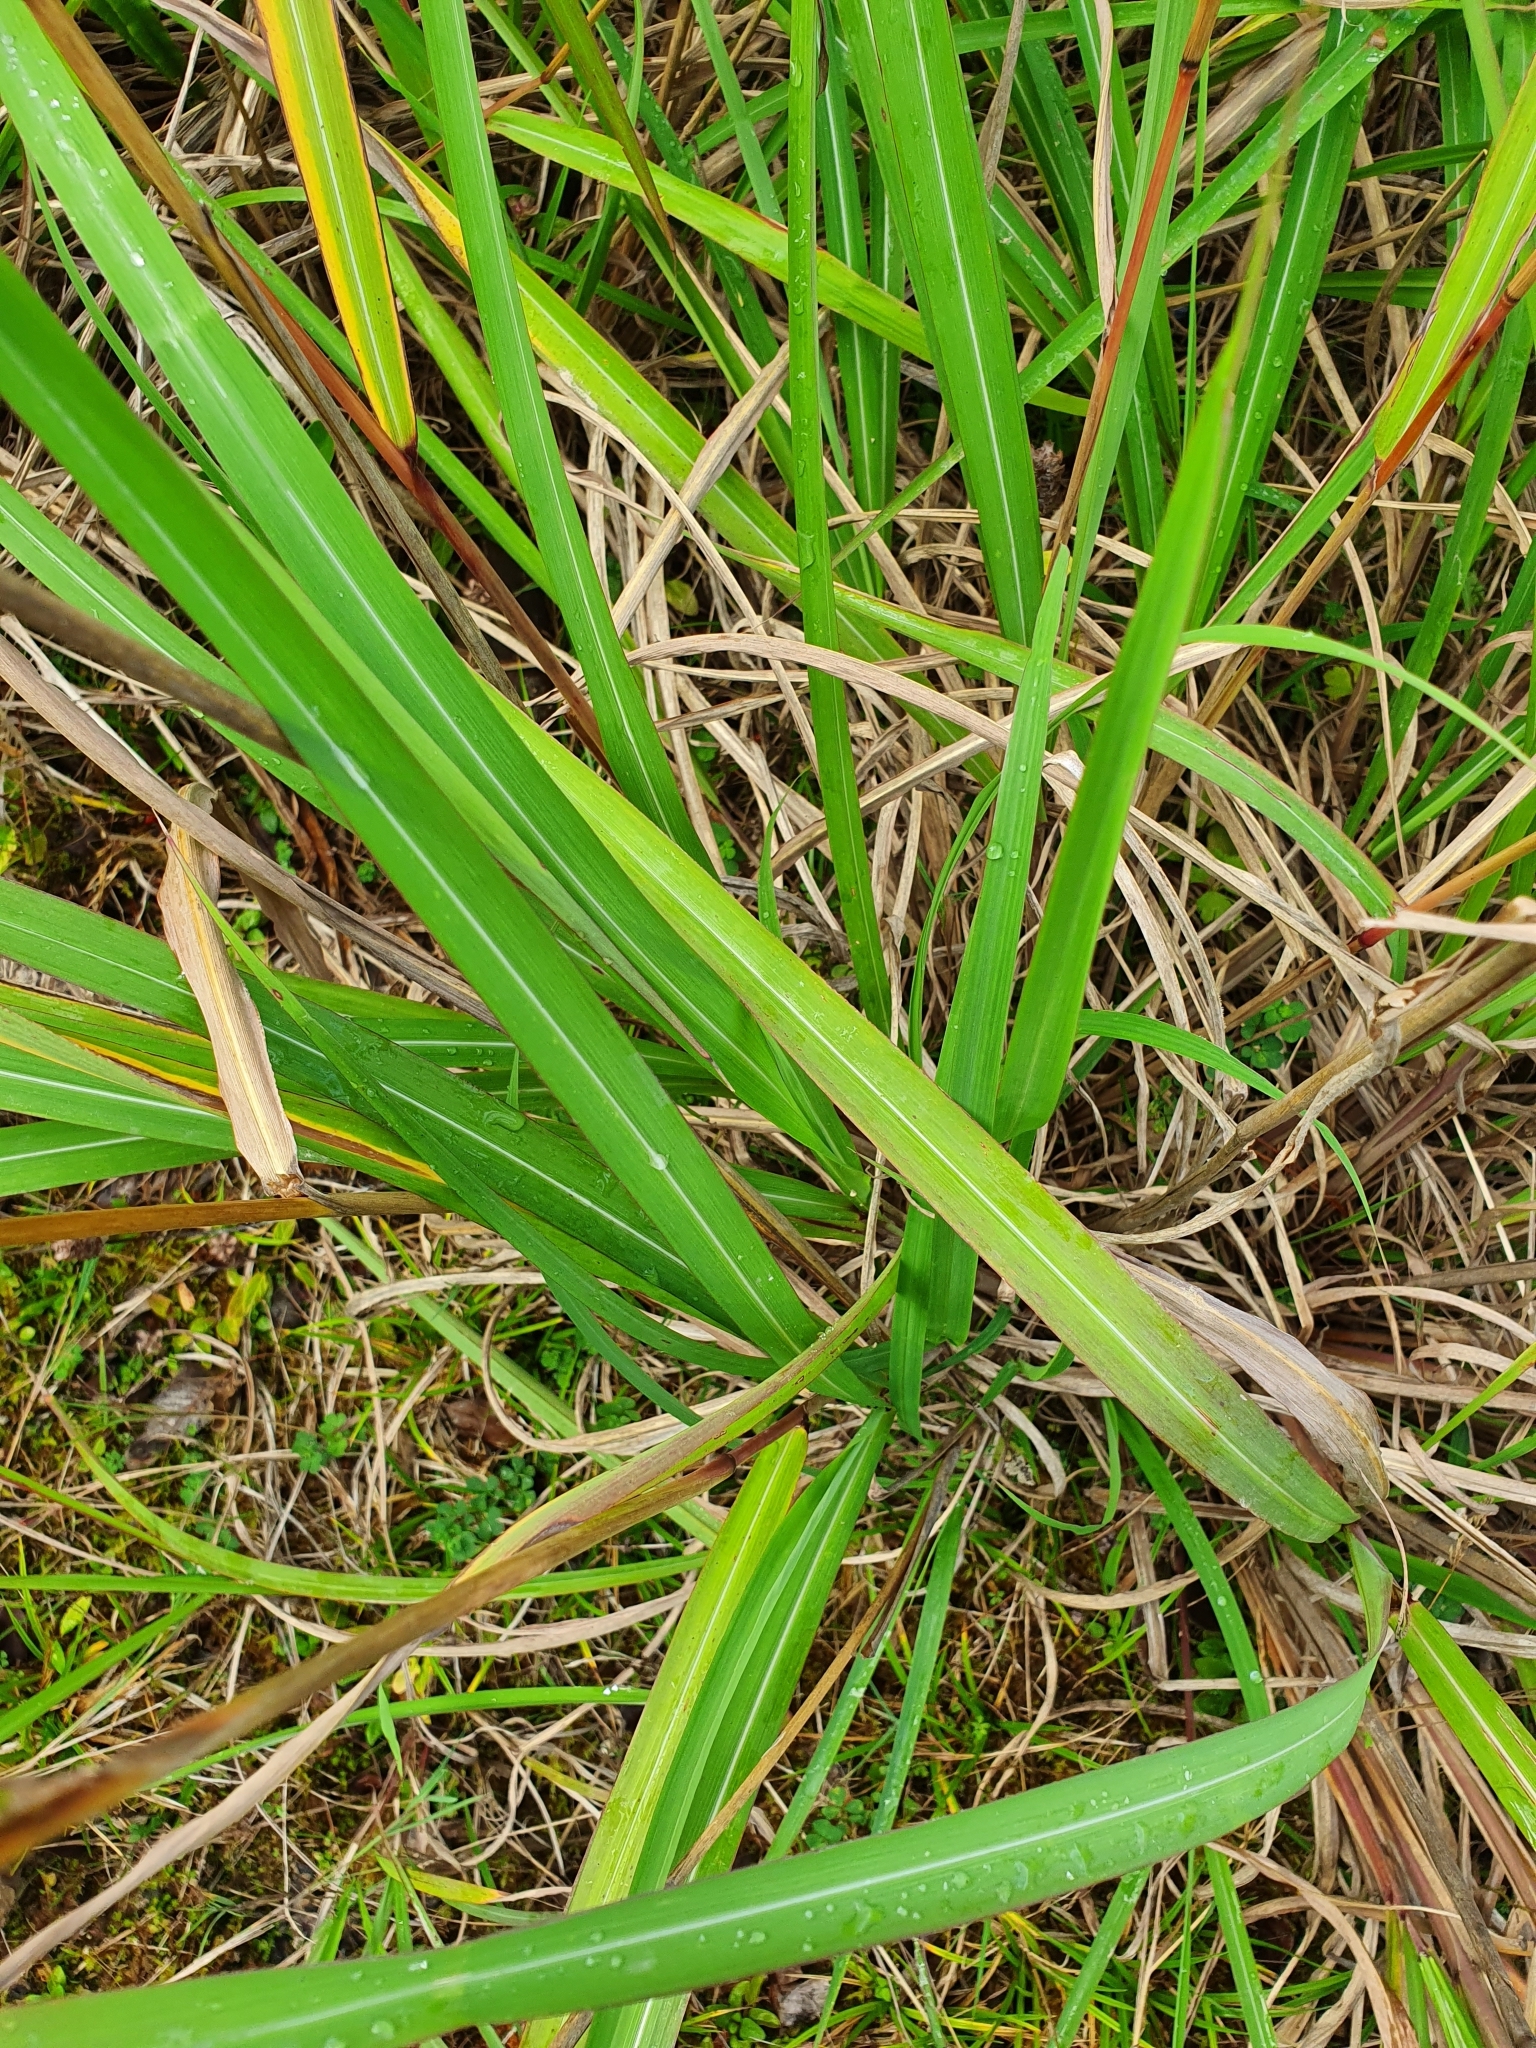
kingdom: Plantae
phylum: Tracheophyta
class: Liliopsida
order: Poales
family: Poaceae
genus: Miscanthus
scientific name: Miscanthus nepalensis
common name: Nepal silver grass
